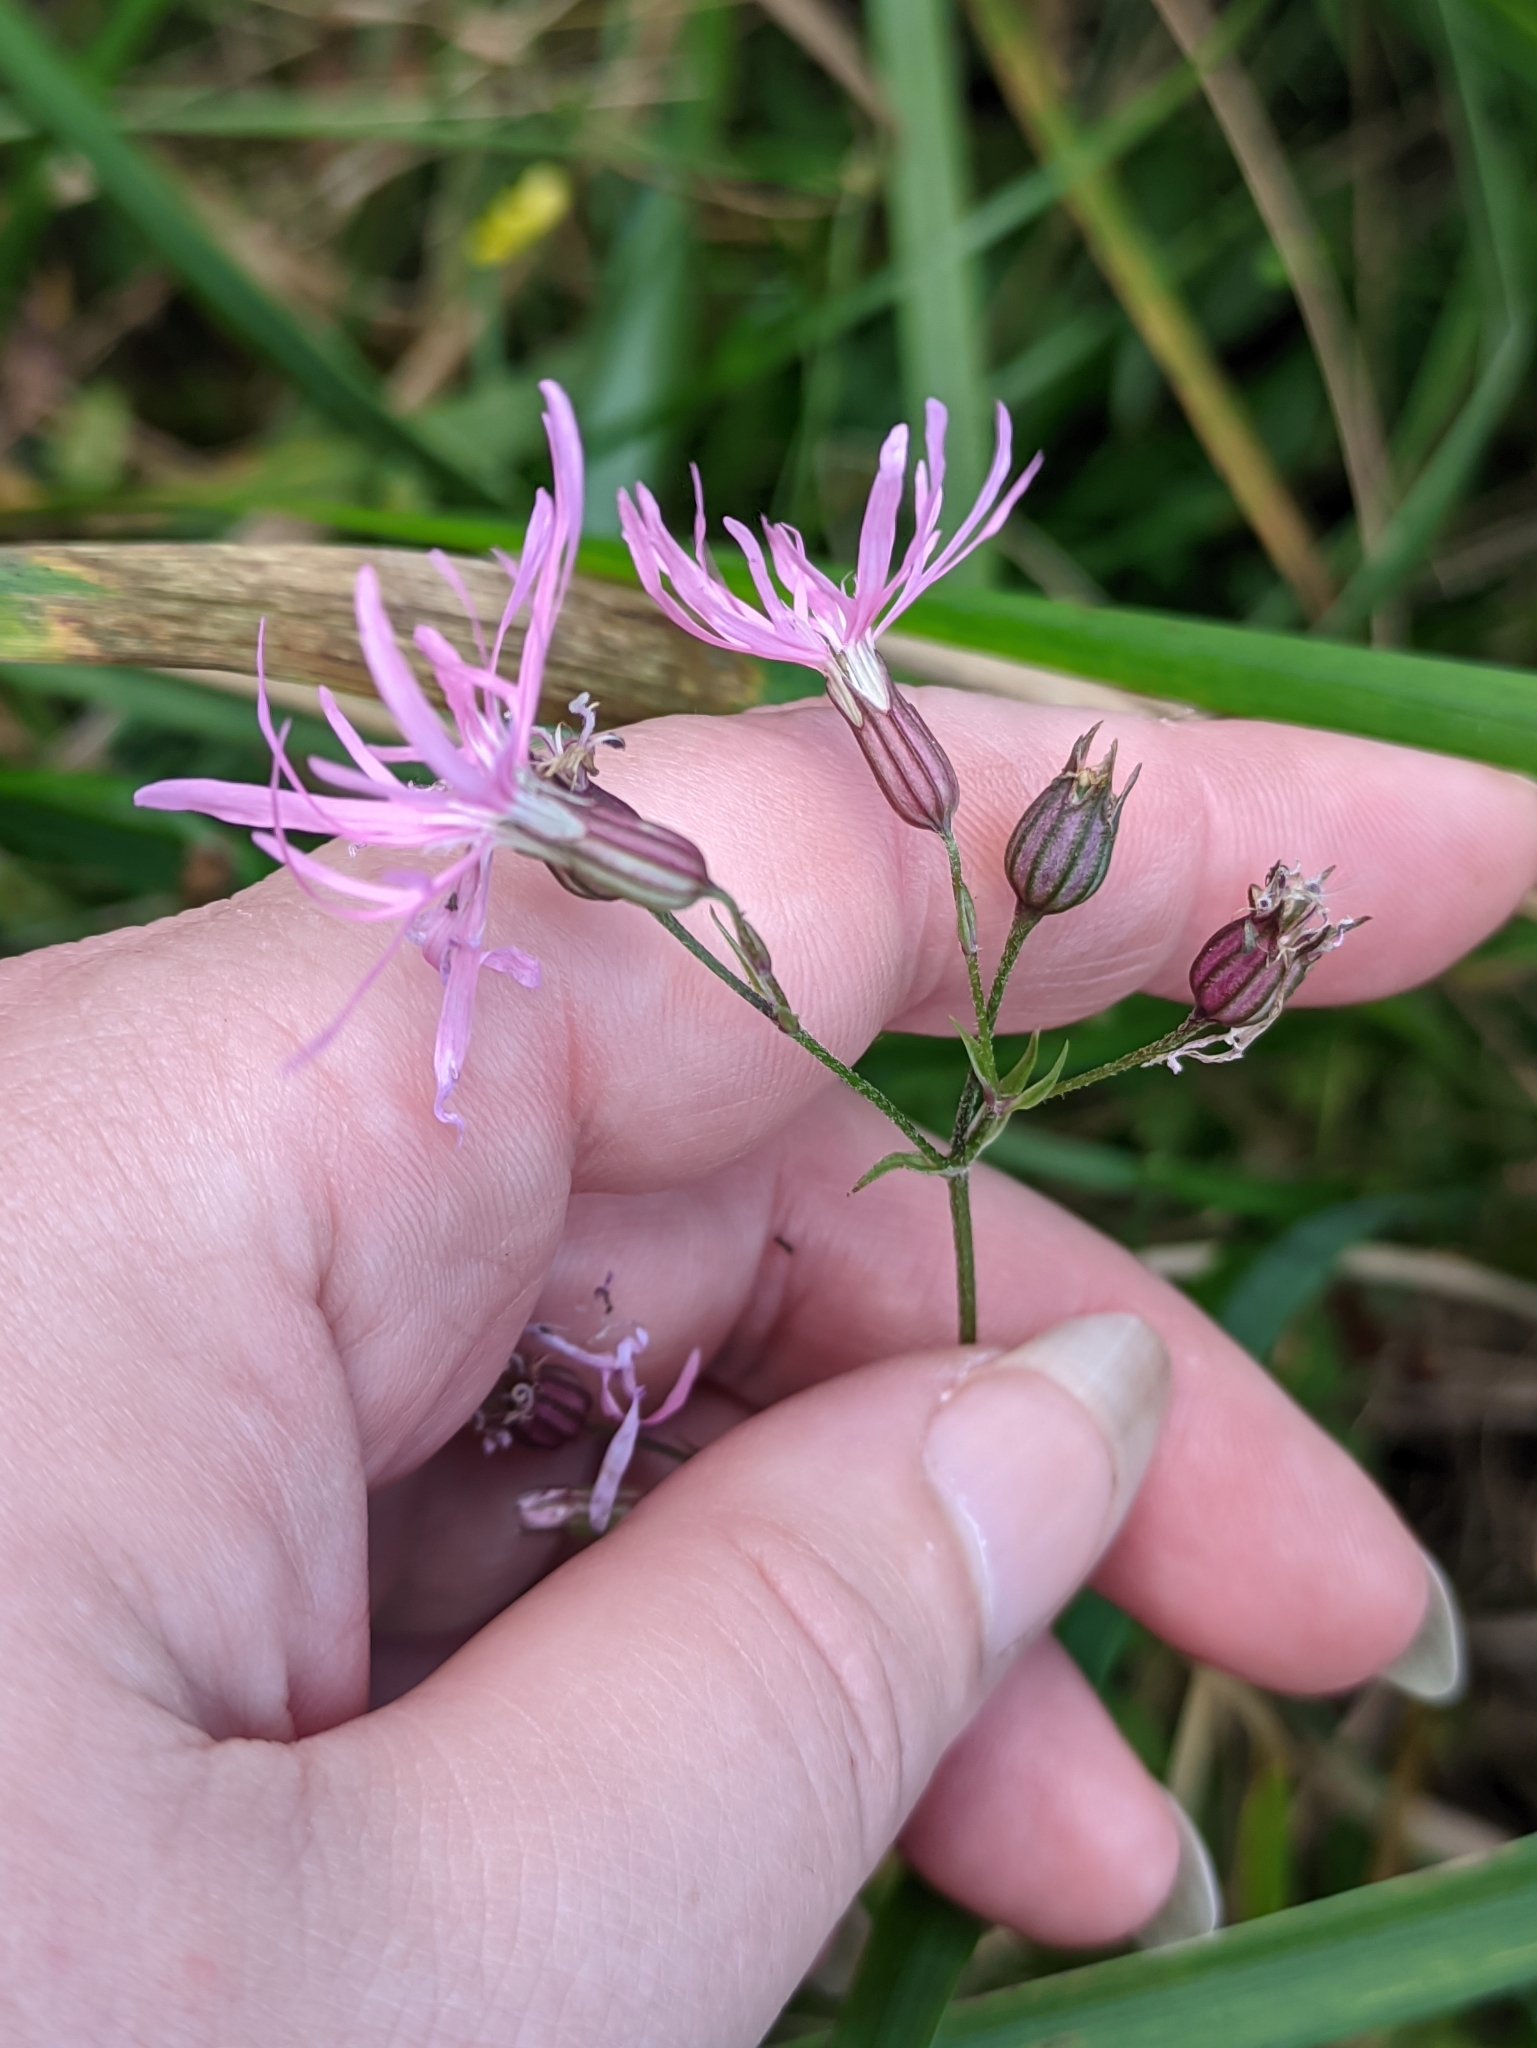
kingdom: Plantae
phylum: Tracheophyta
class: Magnoliopsida
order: Caryophyllales
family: Caryophyllaceae
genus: Silene
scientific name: Silene flos-cuculi
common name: Ragged-robin
